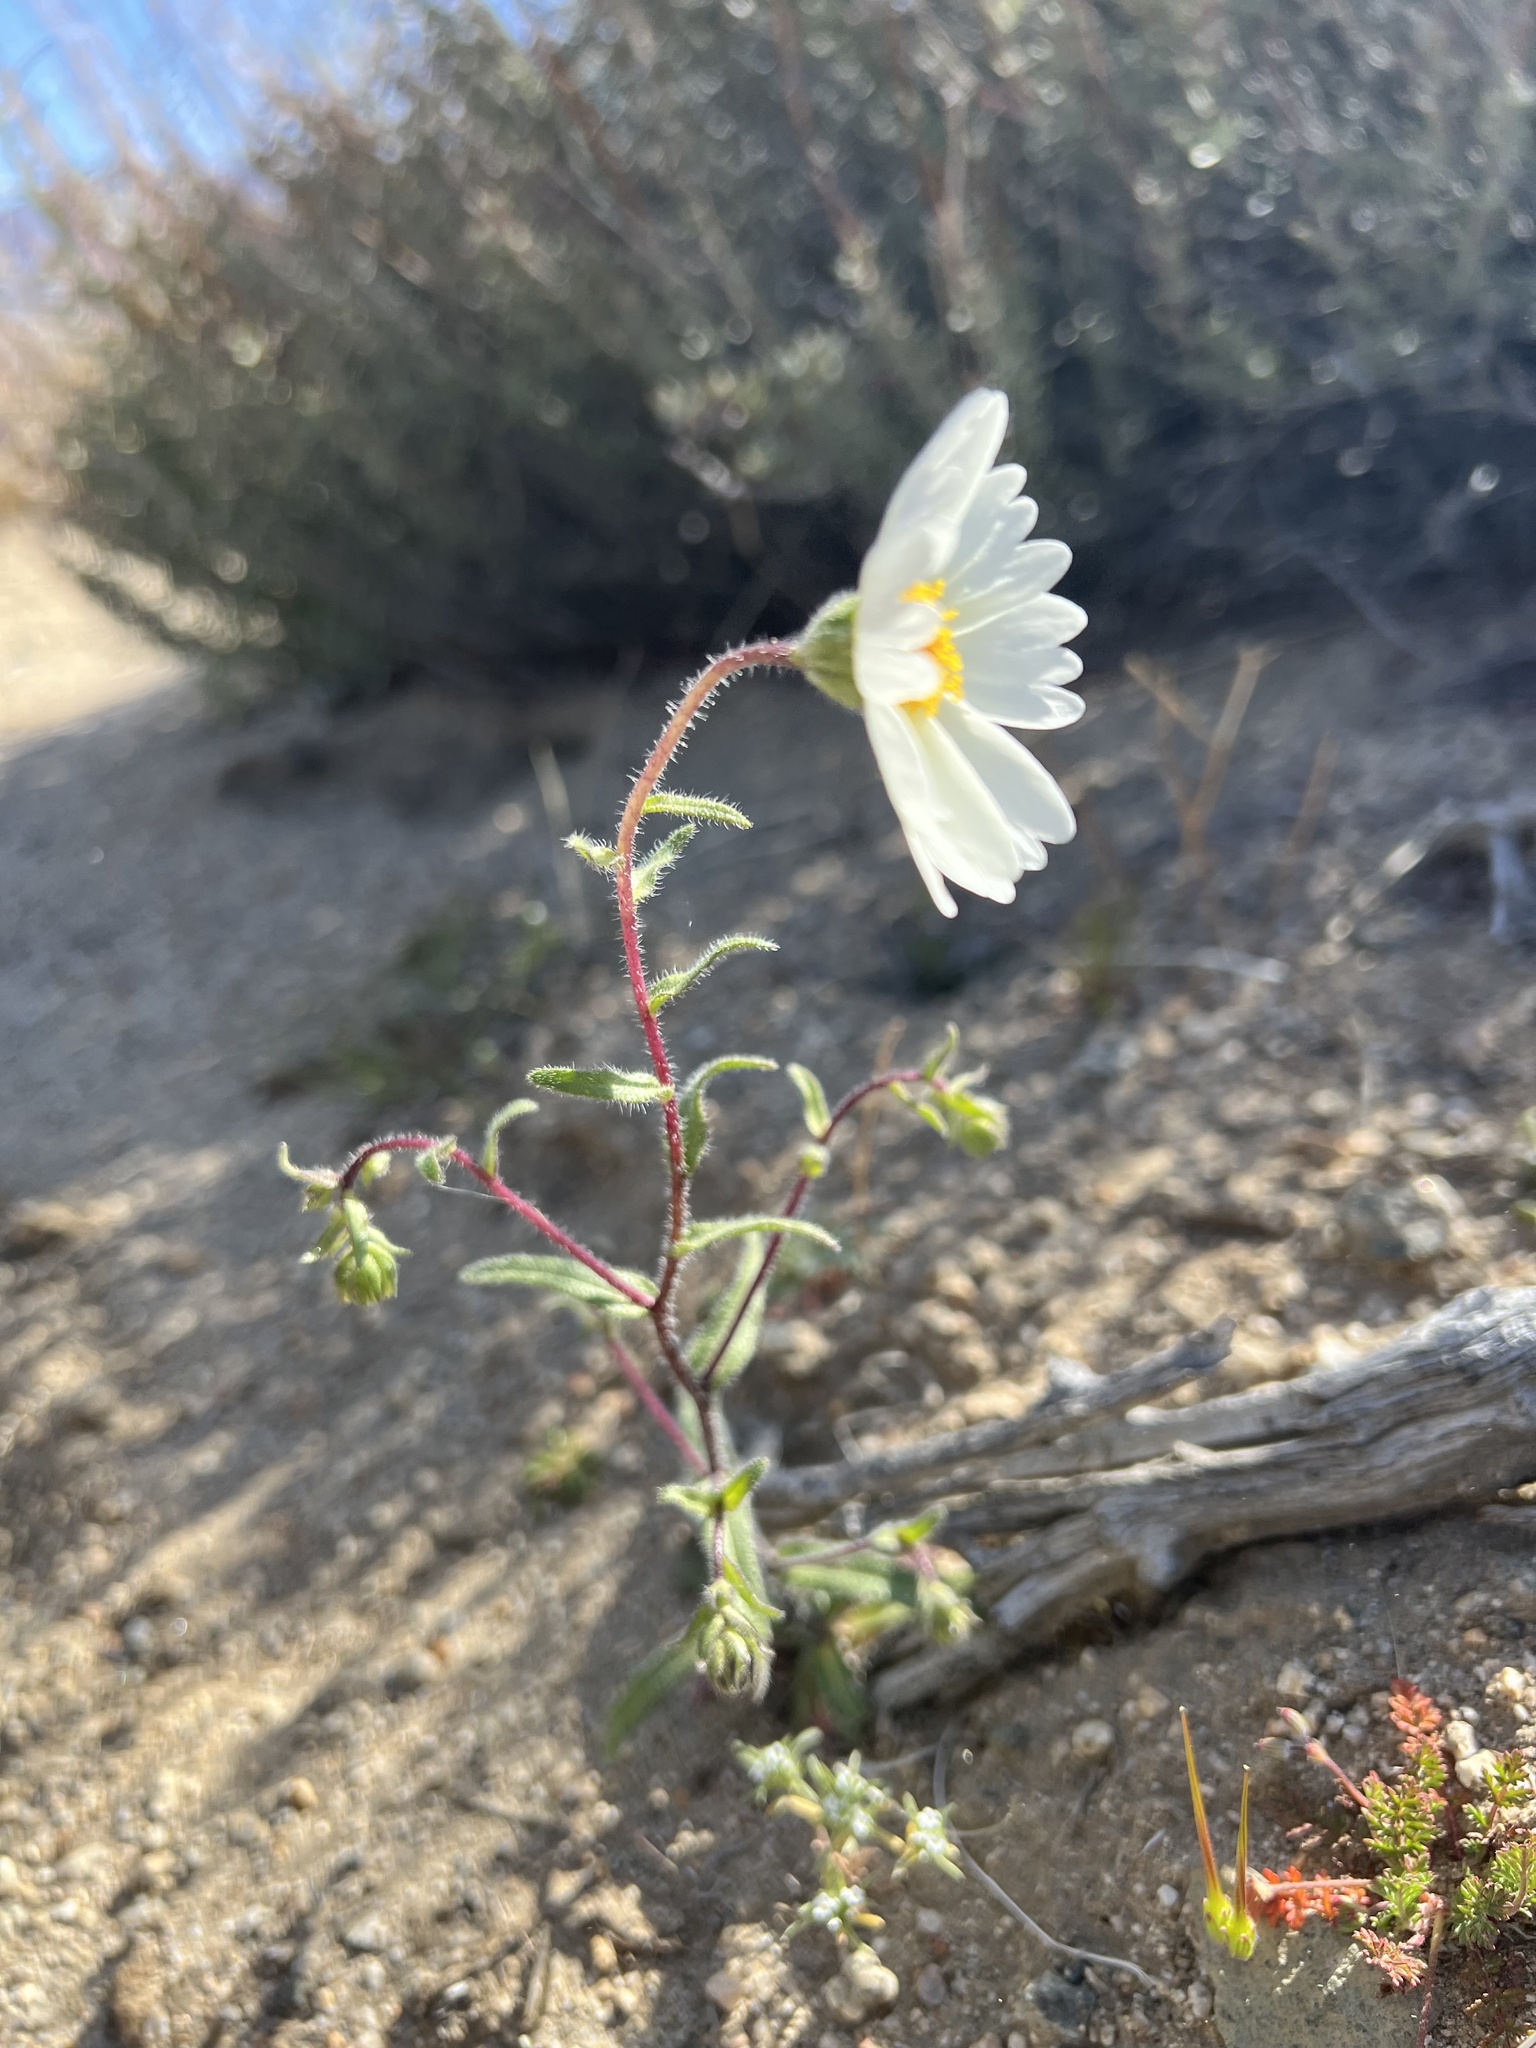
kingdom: Plantae
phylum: Tracheophyta
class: Magnoliopsida
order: Asterales
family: Asteraceae
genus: Layia
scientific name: Layia glandulosa
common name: White layia
